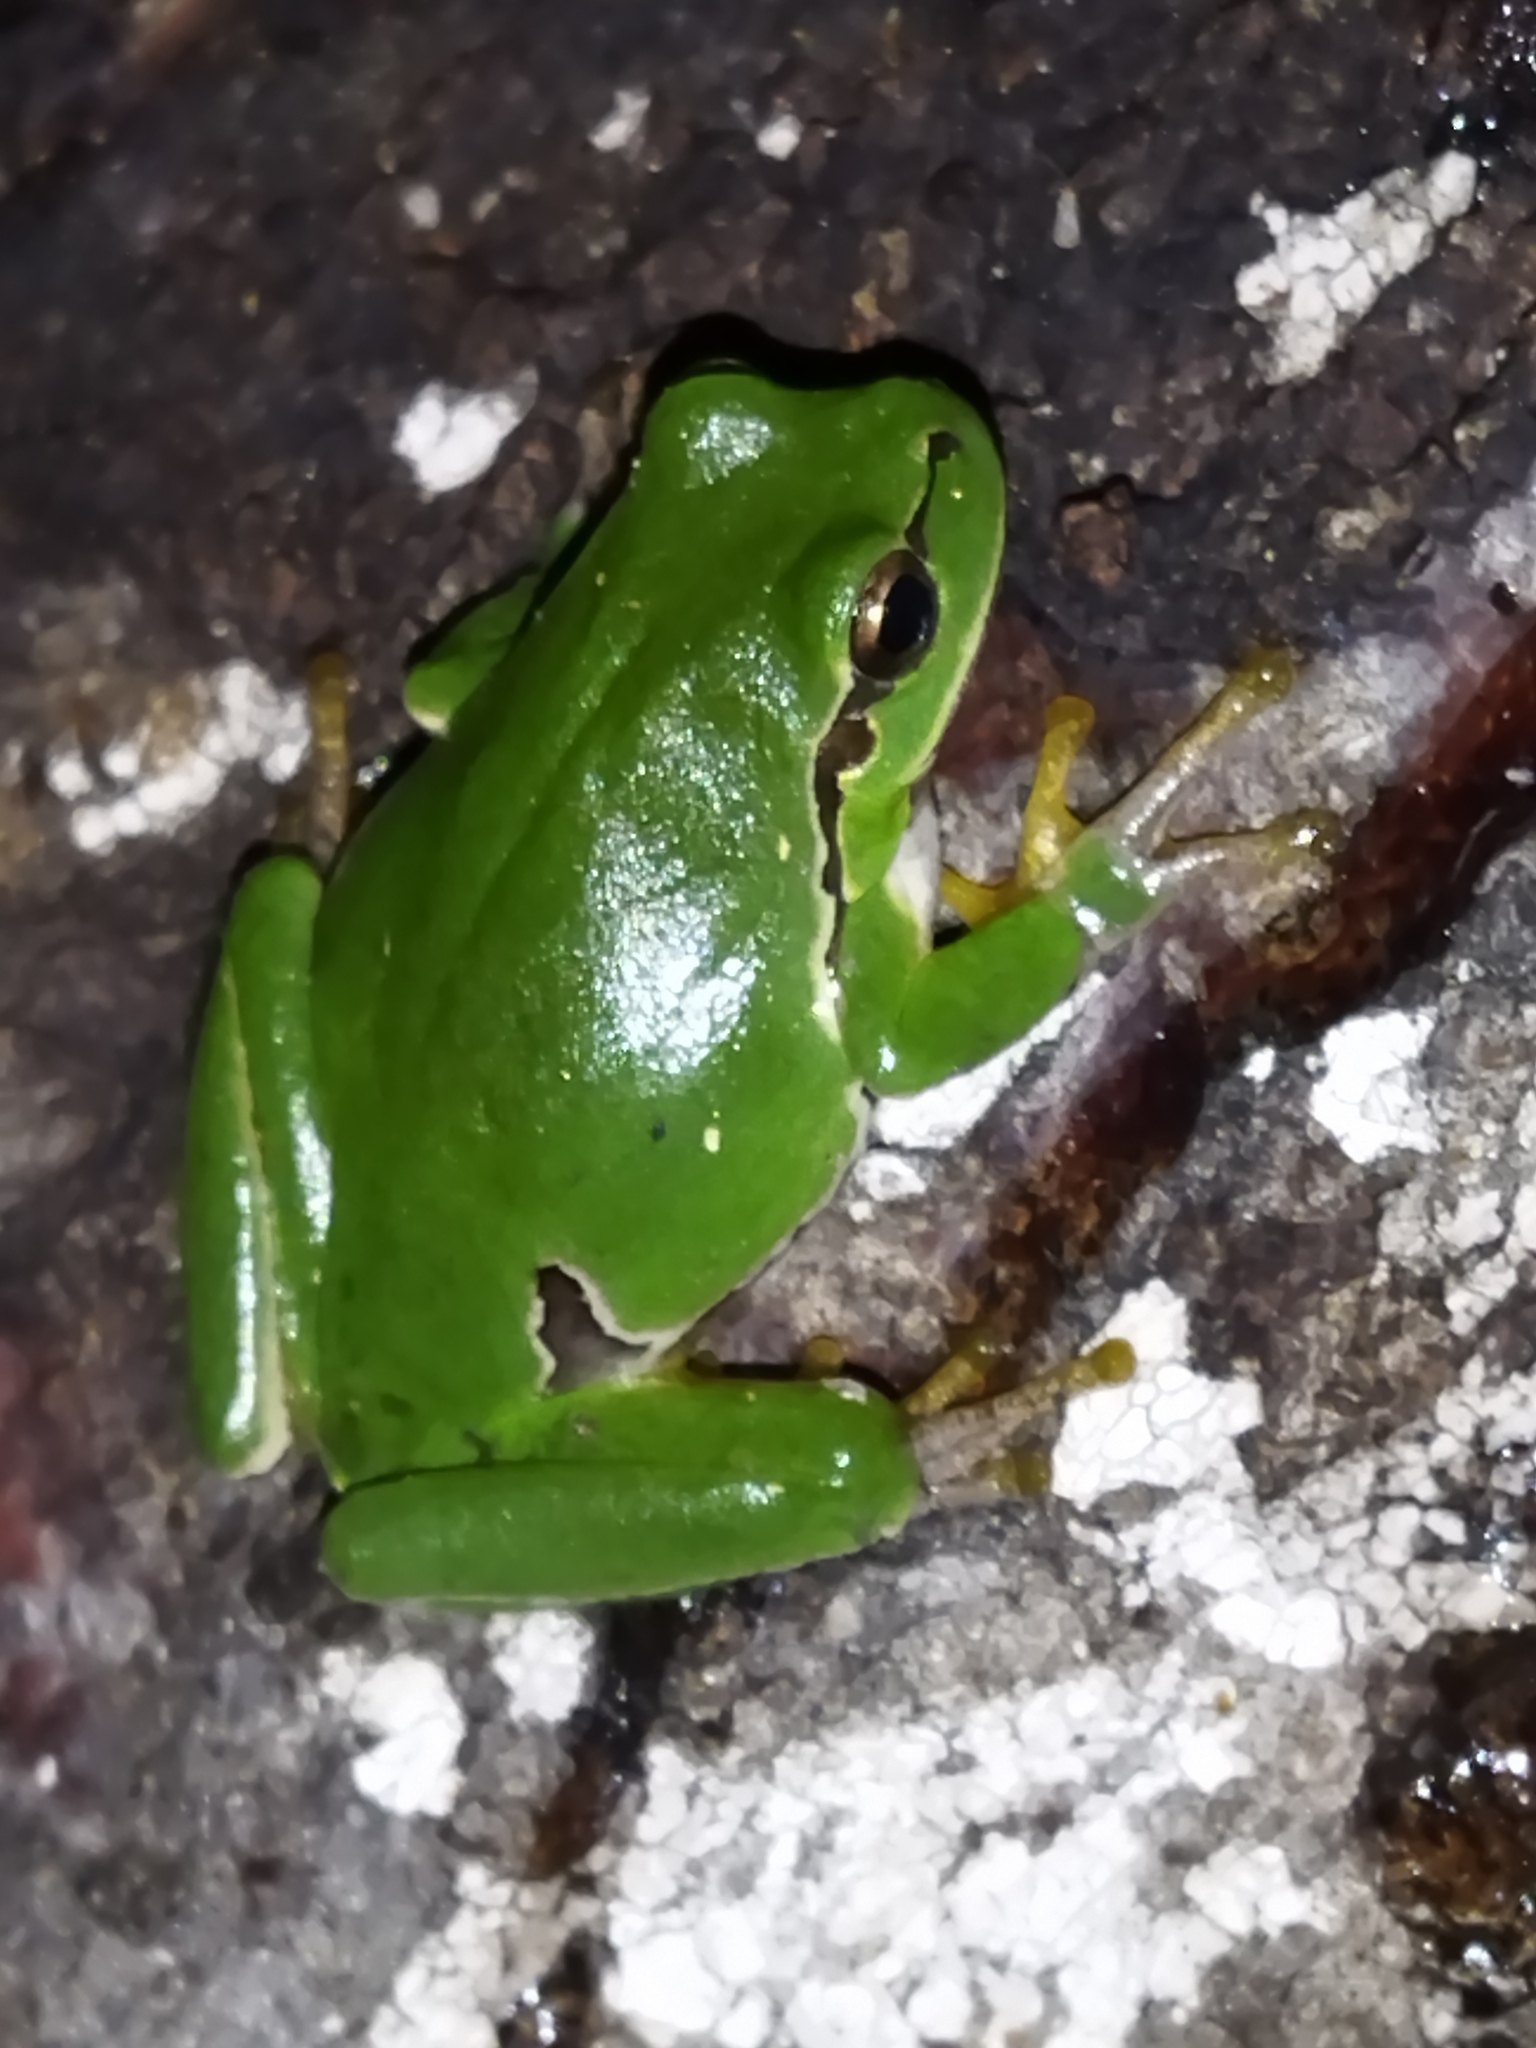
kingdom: Animalia
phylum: Chordata
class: Amphibia
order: Anura
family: Hylidae
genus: Hyla
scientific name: Hyla orientalis
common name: Caucasian treefrog
